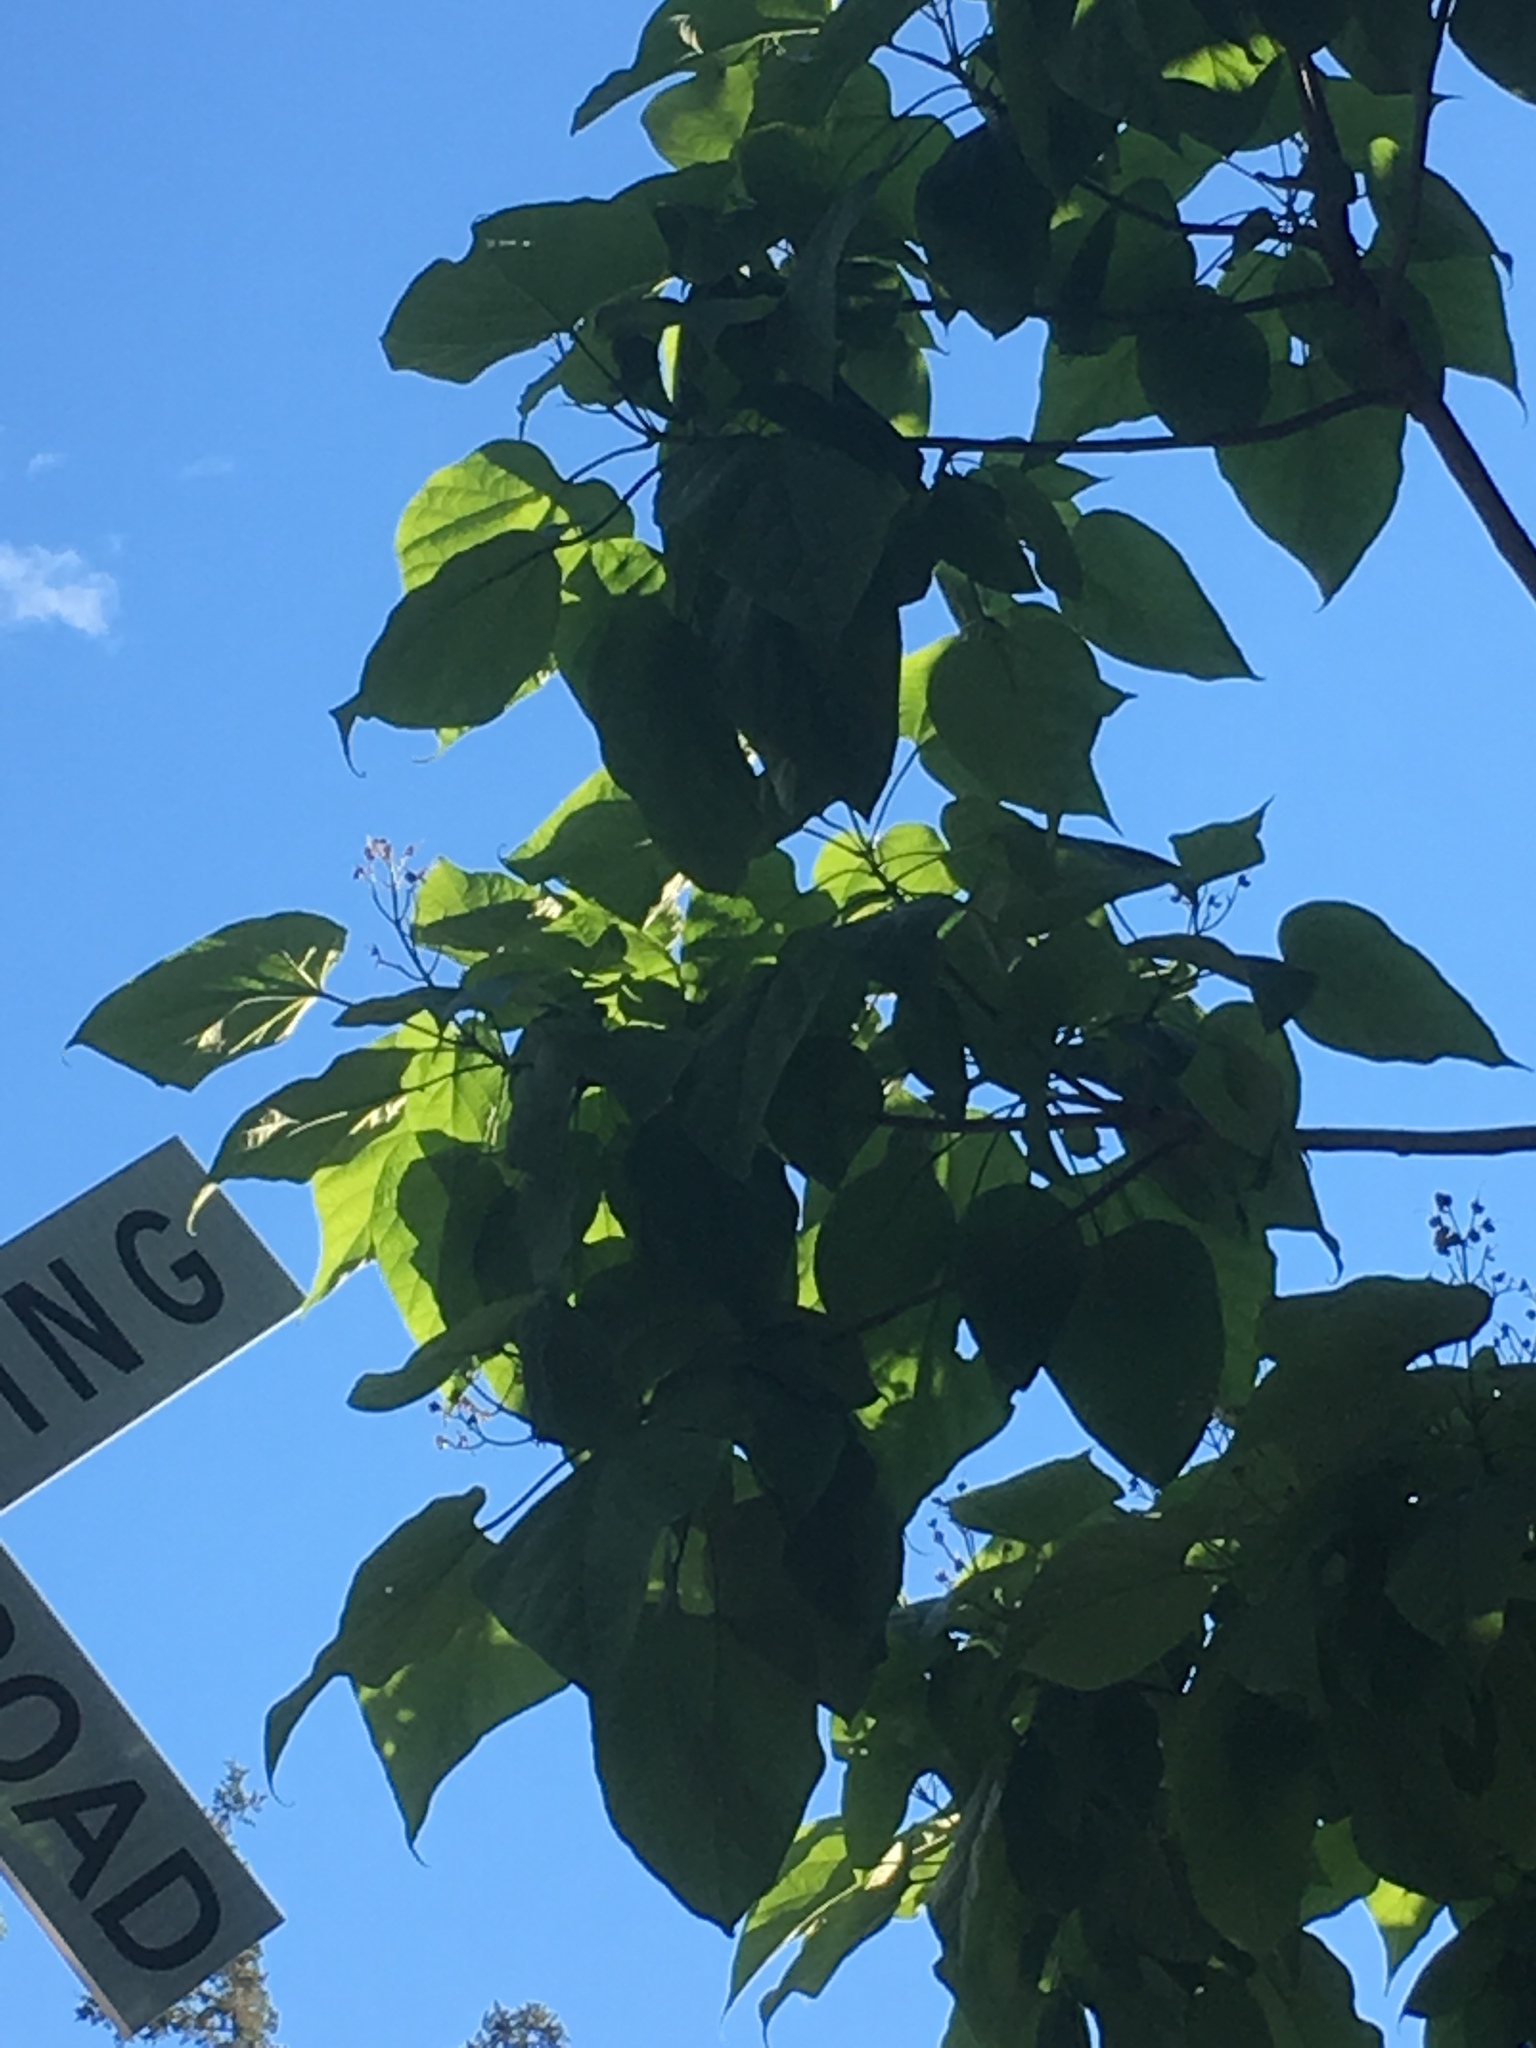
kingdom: Plantae
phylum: Tracheophyta
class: Magnoliopsida
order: Lamiales
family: Bignoniaceae
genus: Catalpa
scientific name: Catalpa speciosa
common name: Northern catalpa
